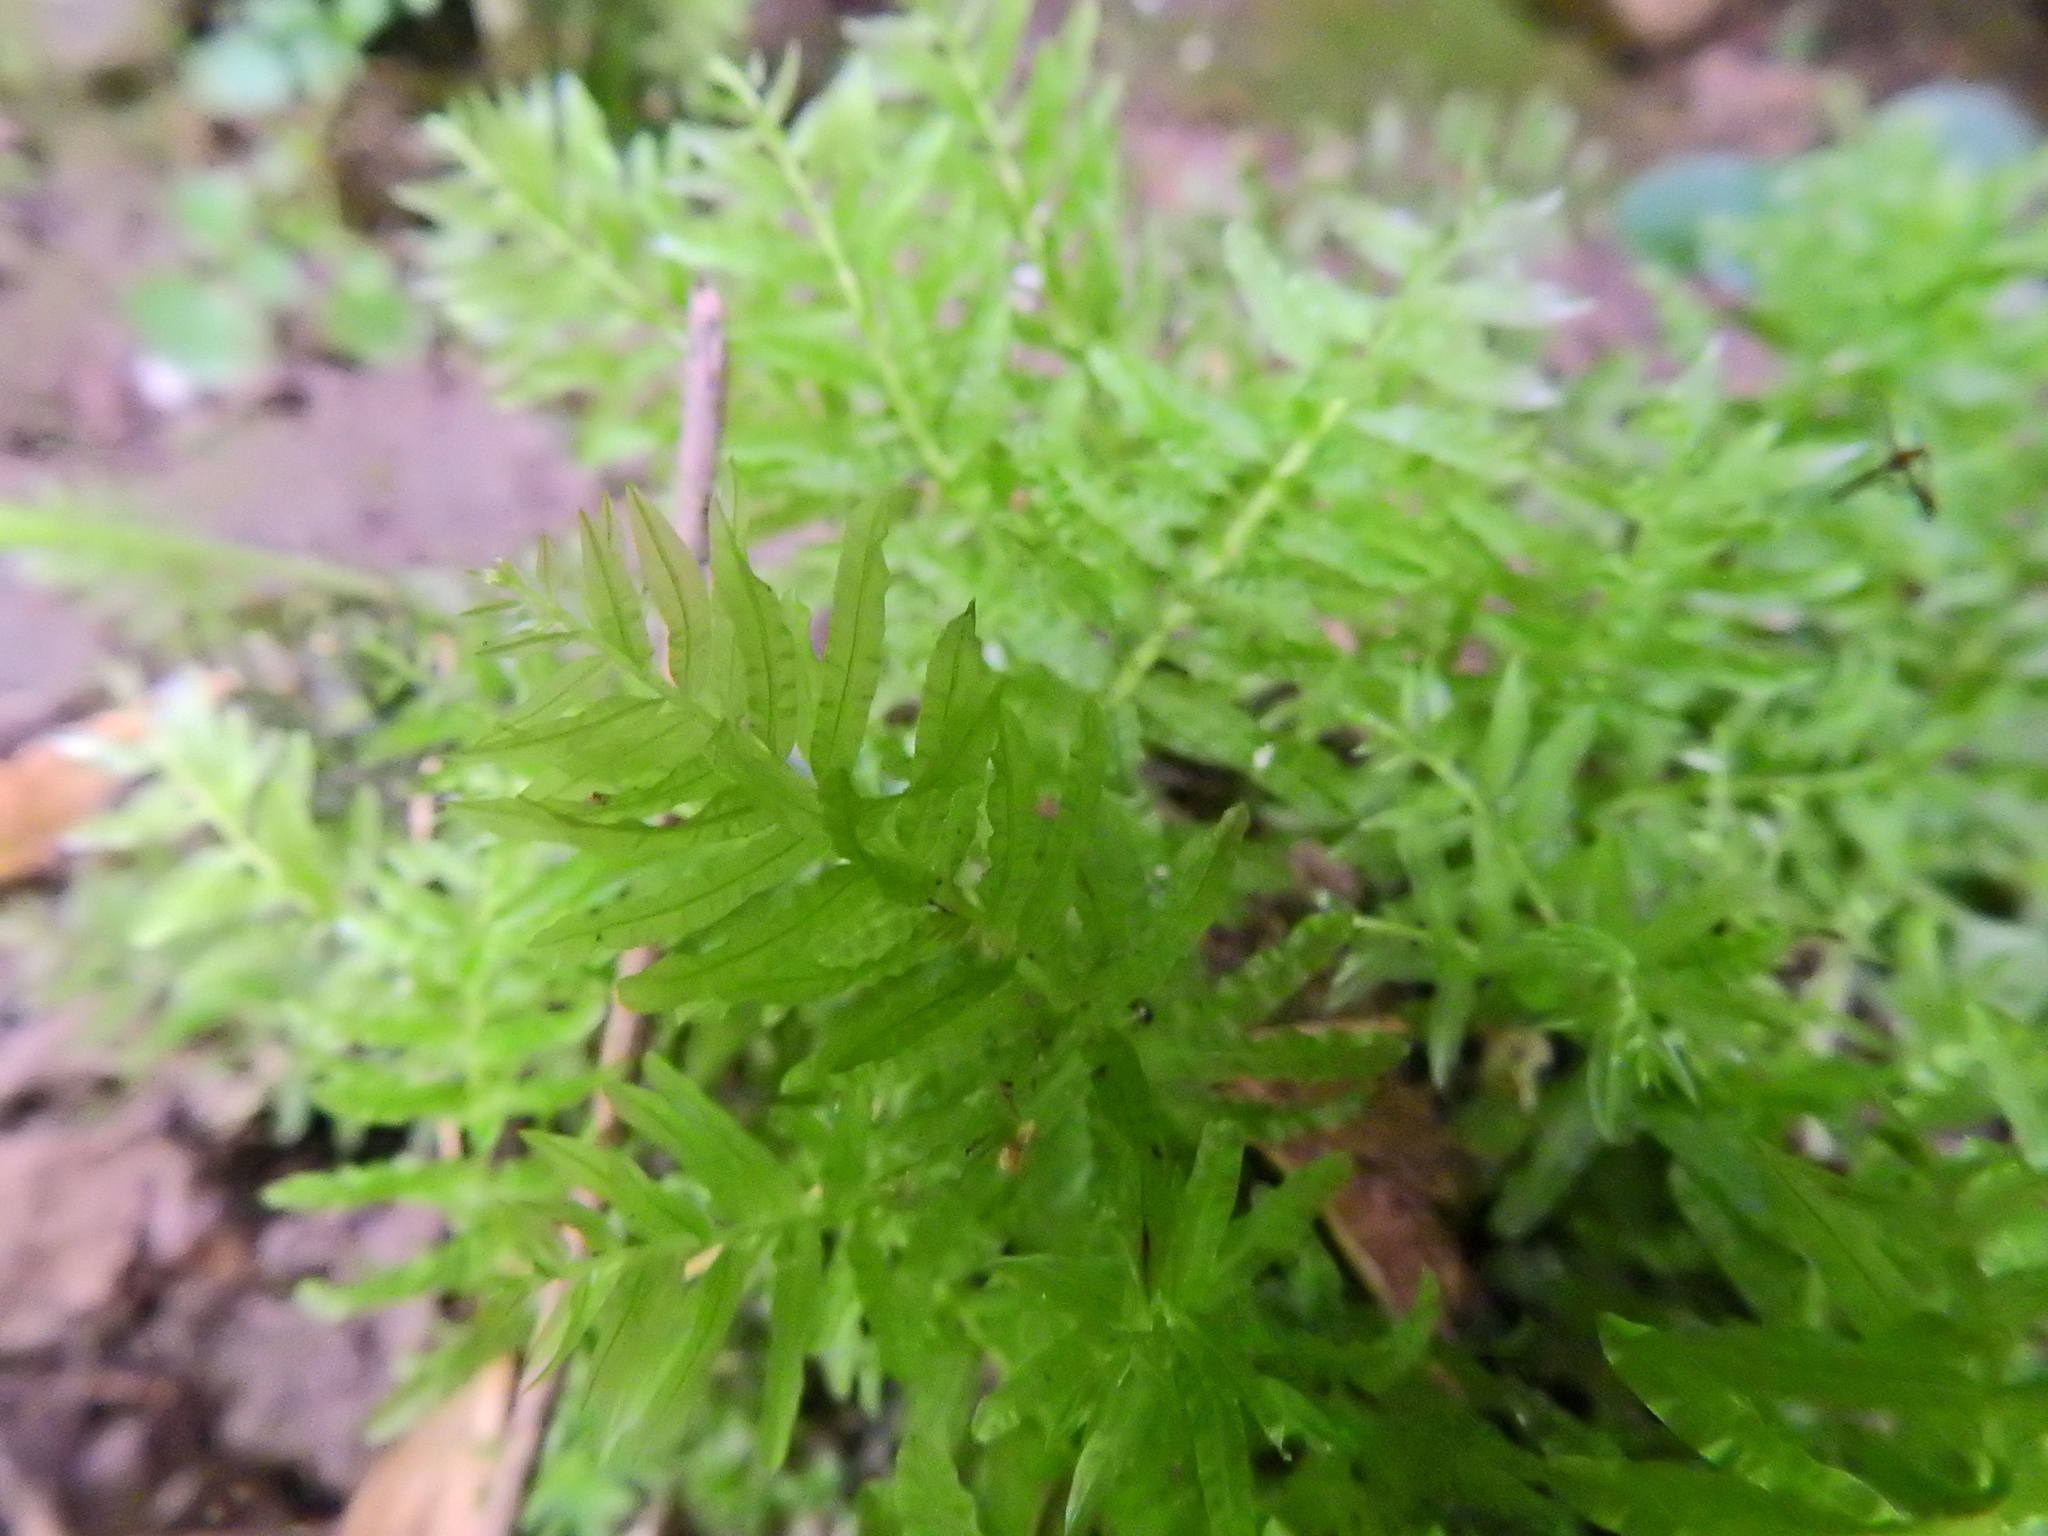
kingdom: Plantae
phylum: Bryophyta
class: Bryopsida
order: Bryales
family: Mniaceae
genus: Plagiomnium
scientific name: Plagiomnium undulatum
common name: Hart's-tongue thyme-moss
